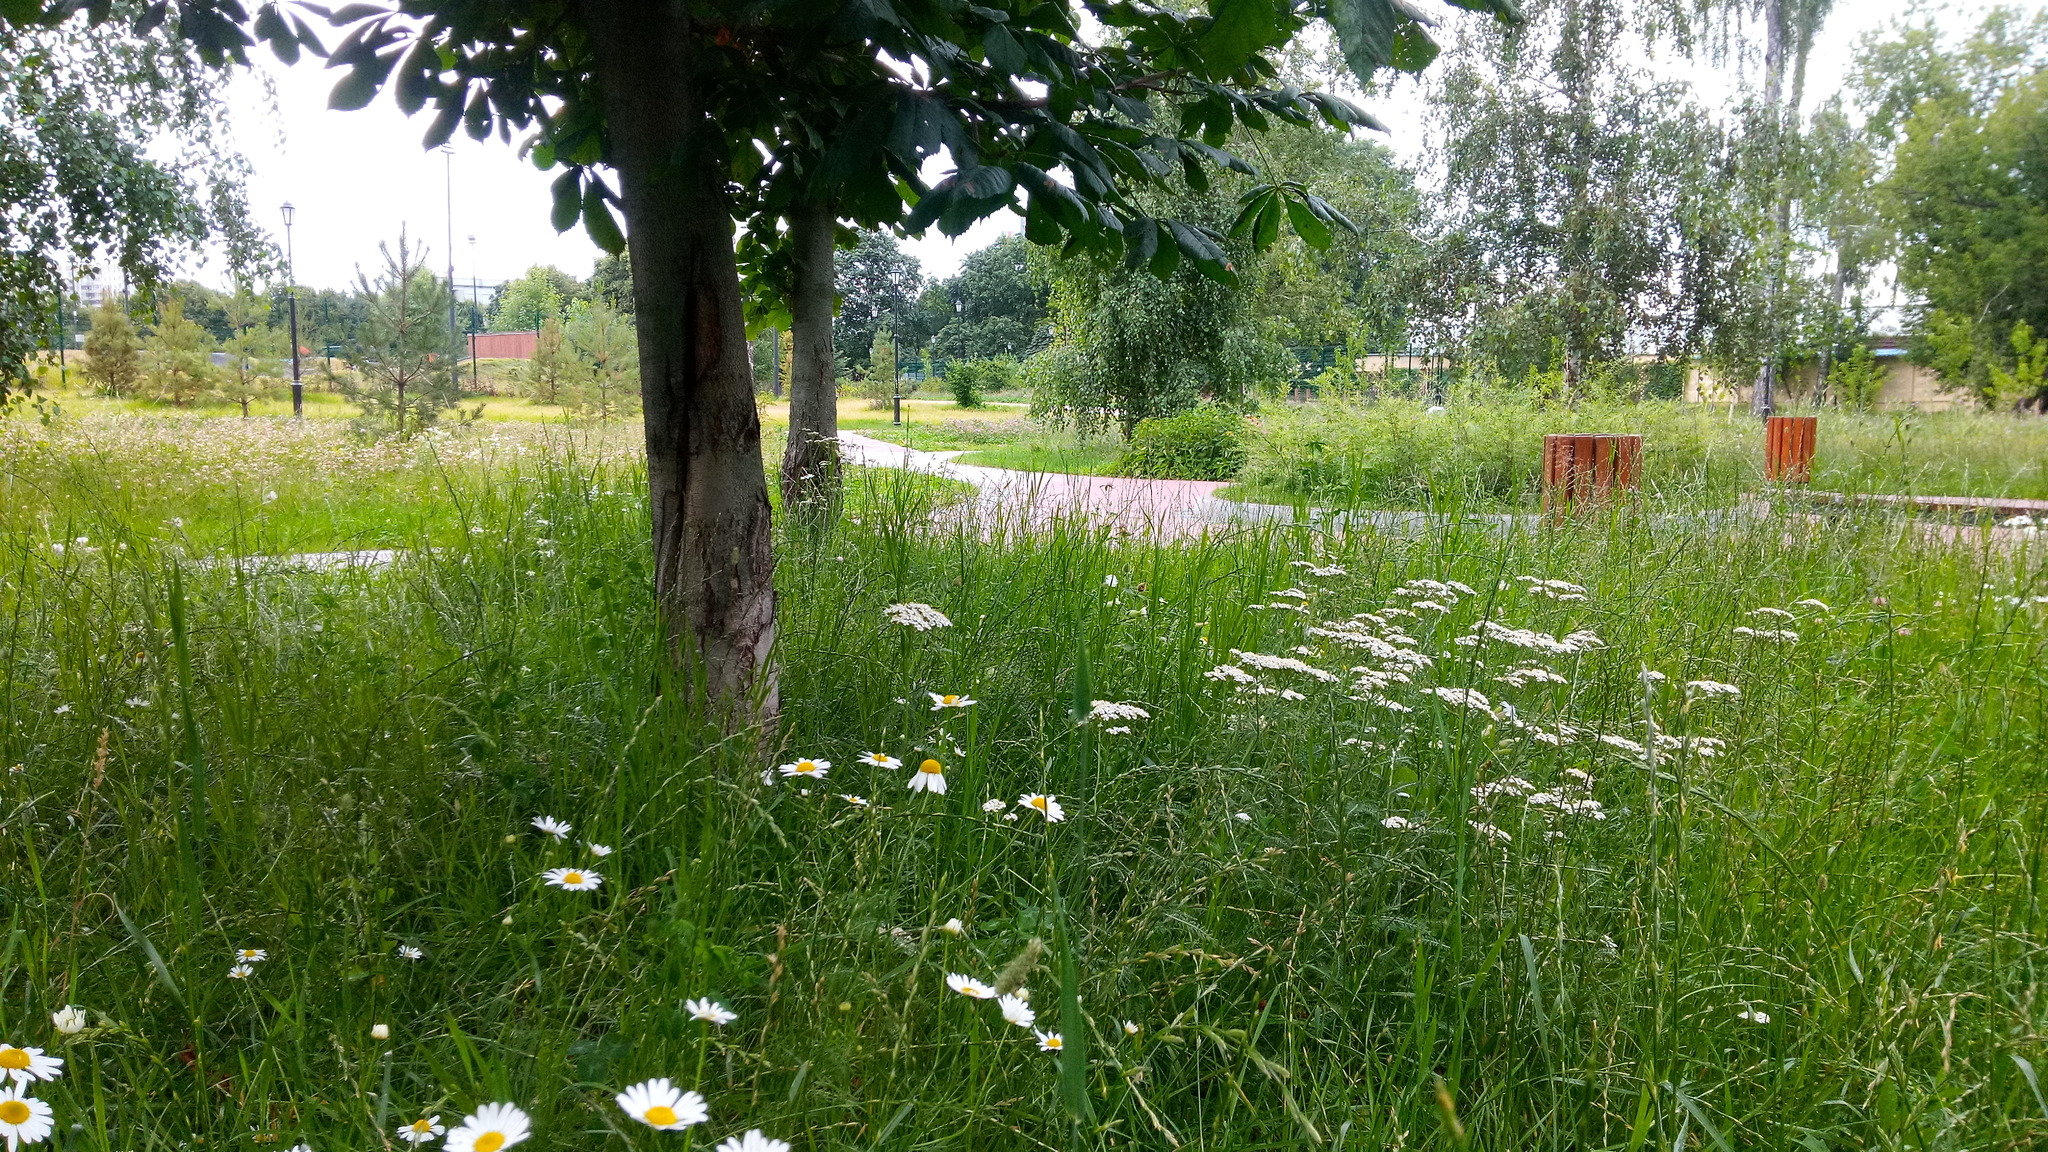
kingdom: Plantae
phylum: Tracheophyta
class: Magnoliopsida
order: Asterales
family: Asteraceae
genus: Achillea
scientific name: Achillea millefolium
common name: Yarrow
